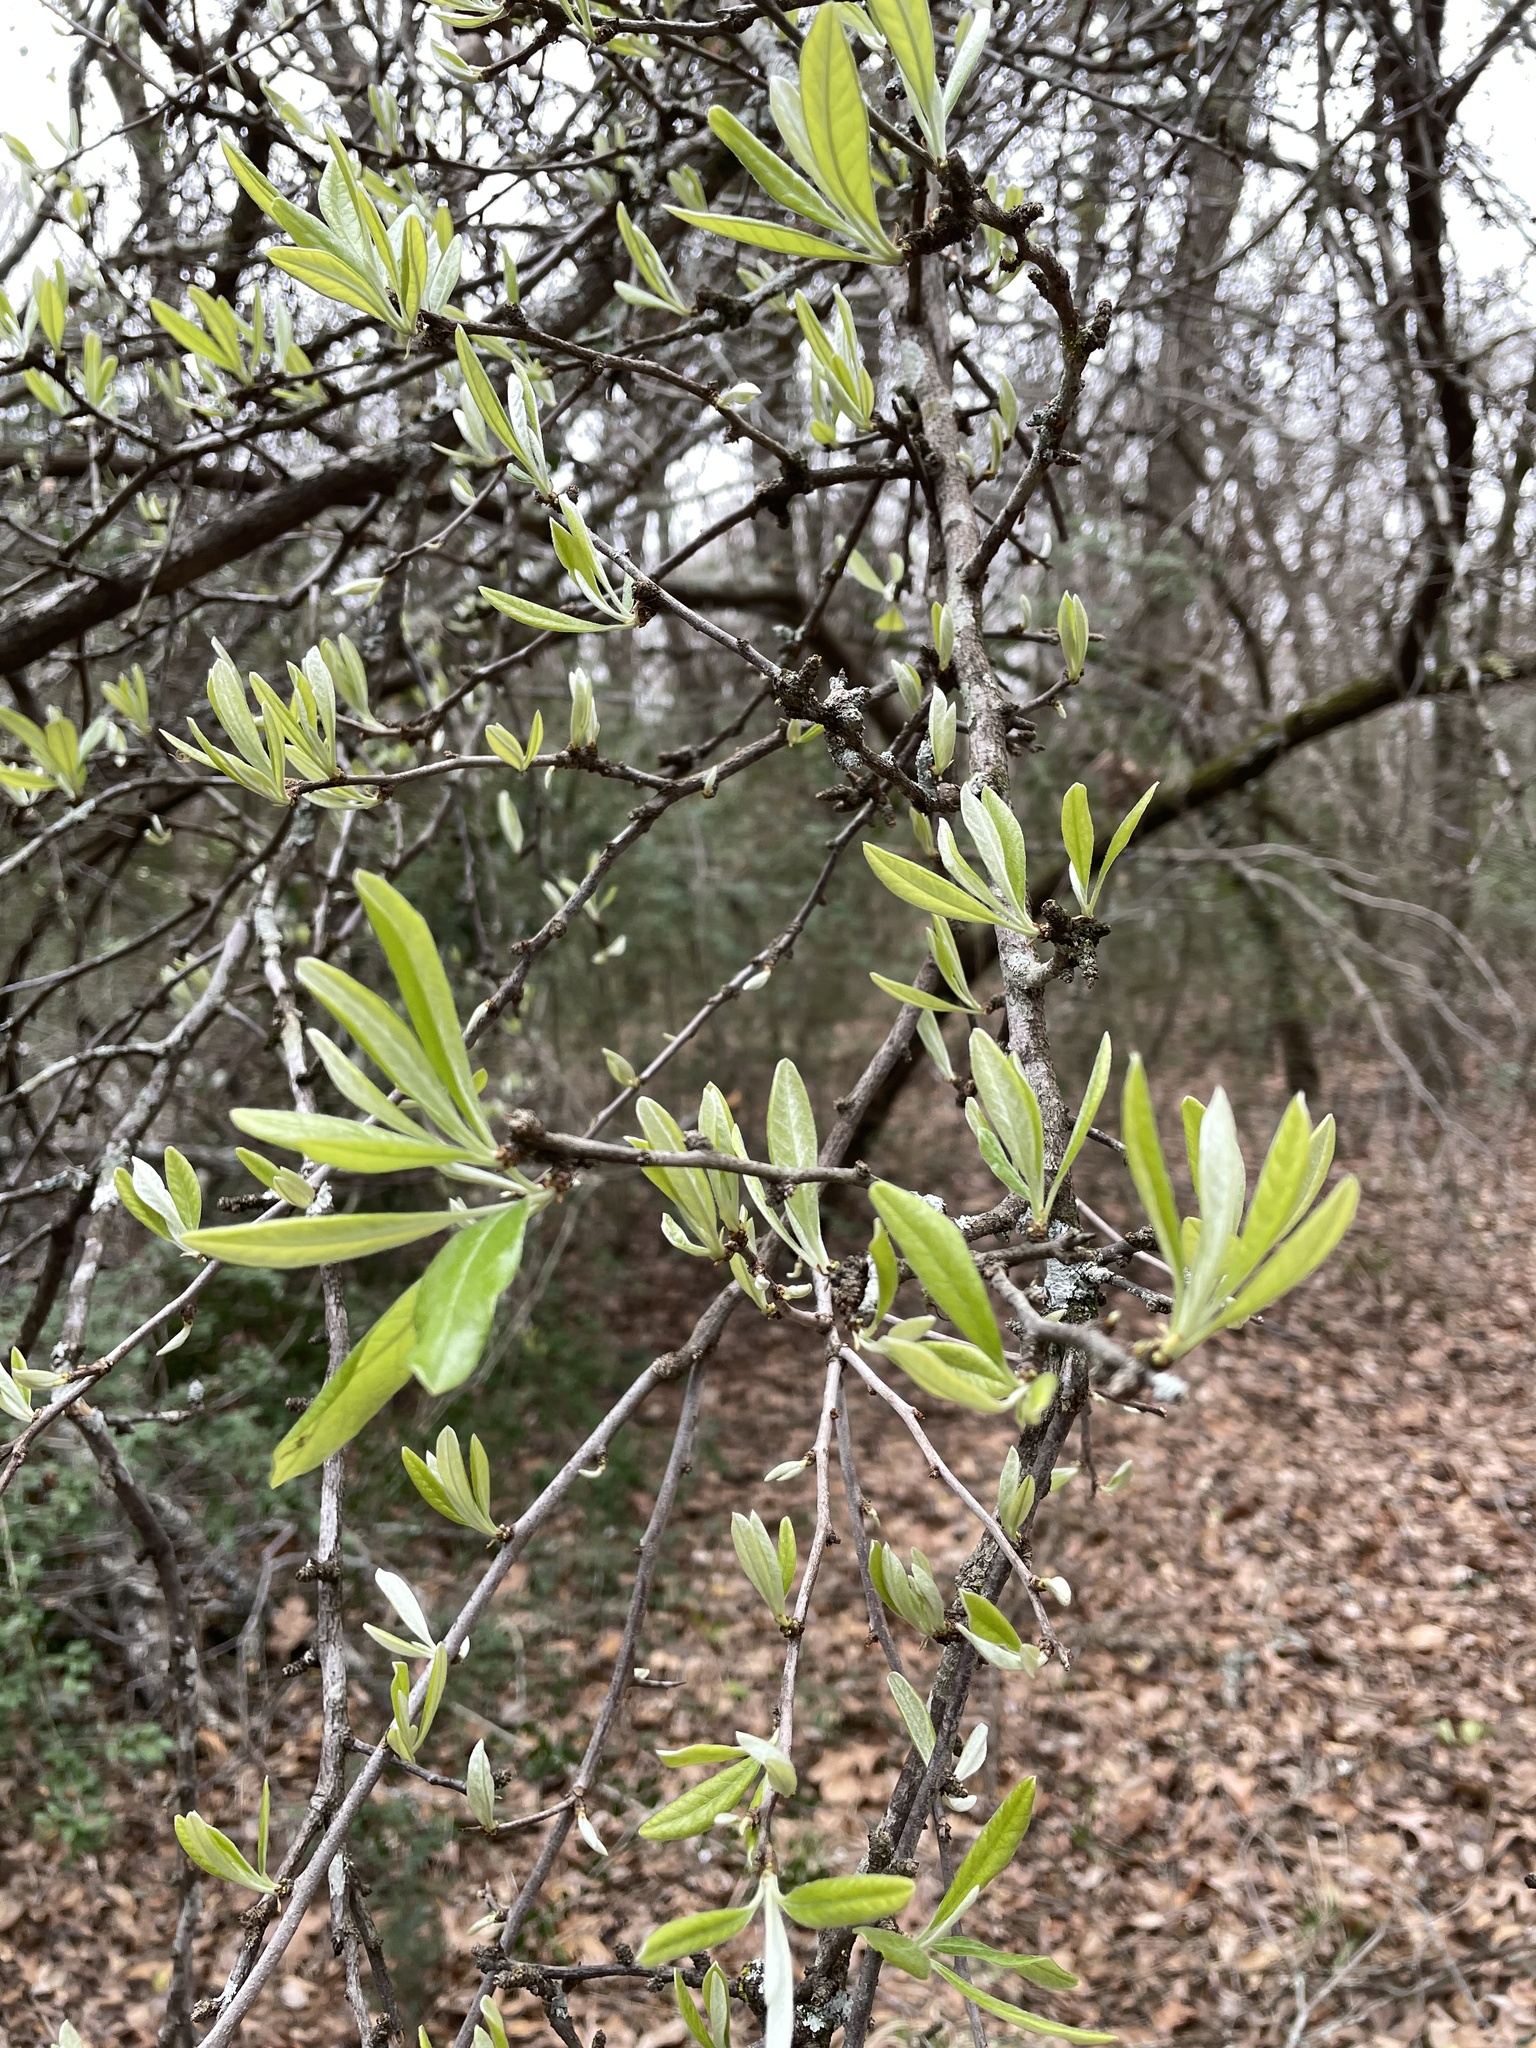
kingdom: Plantae
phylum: Tracheophyta
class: Magnoliopsida
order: Ericales
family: Sapotaceae
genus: Sideroxylon
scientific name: Sideroxylon lanuginosum
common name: Chittamwood
